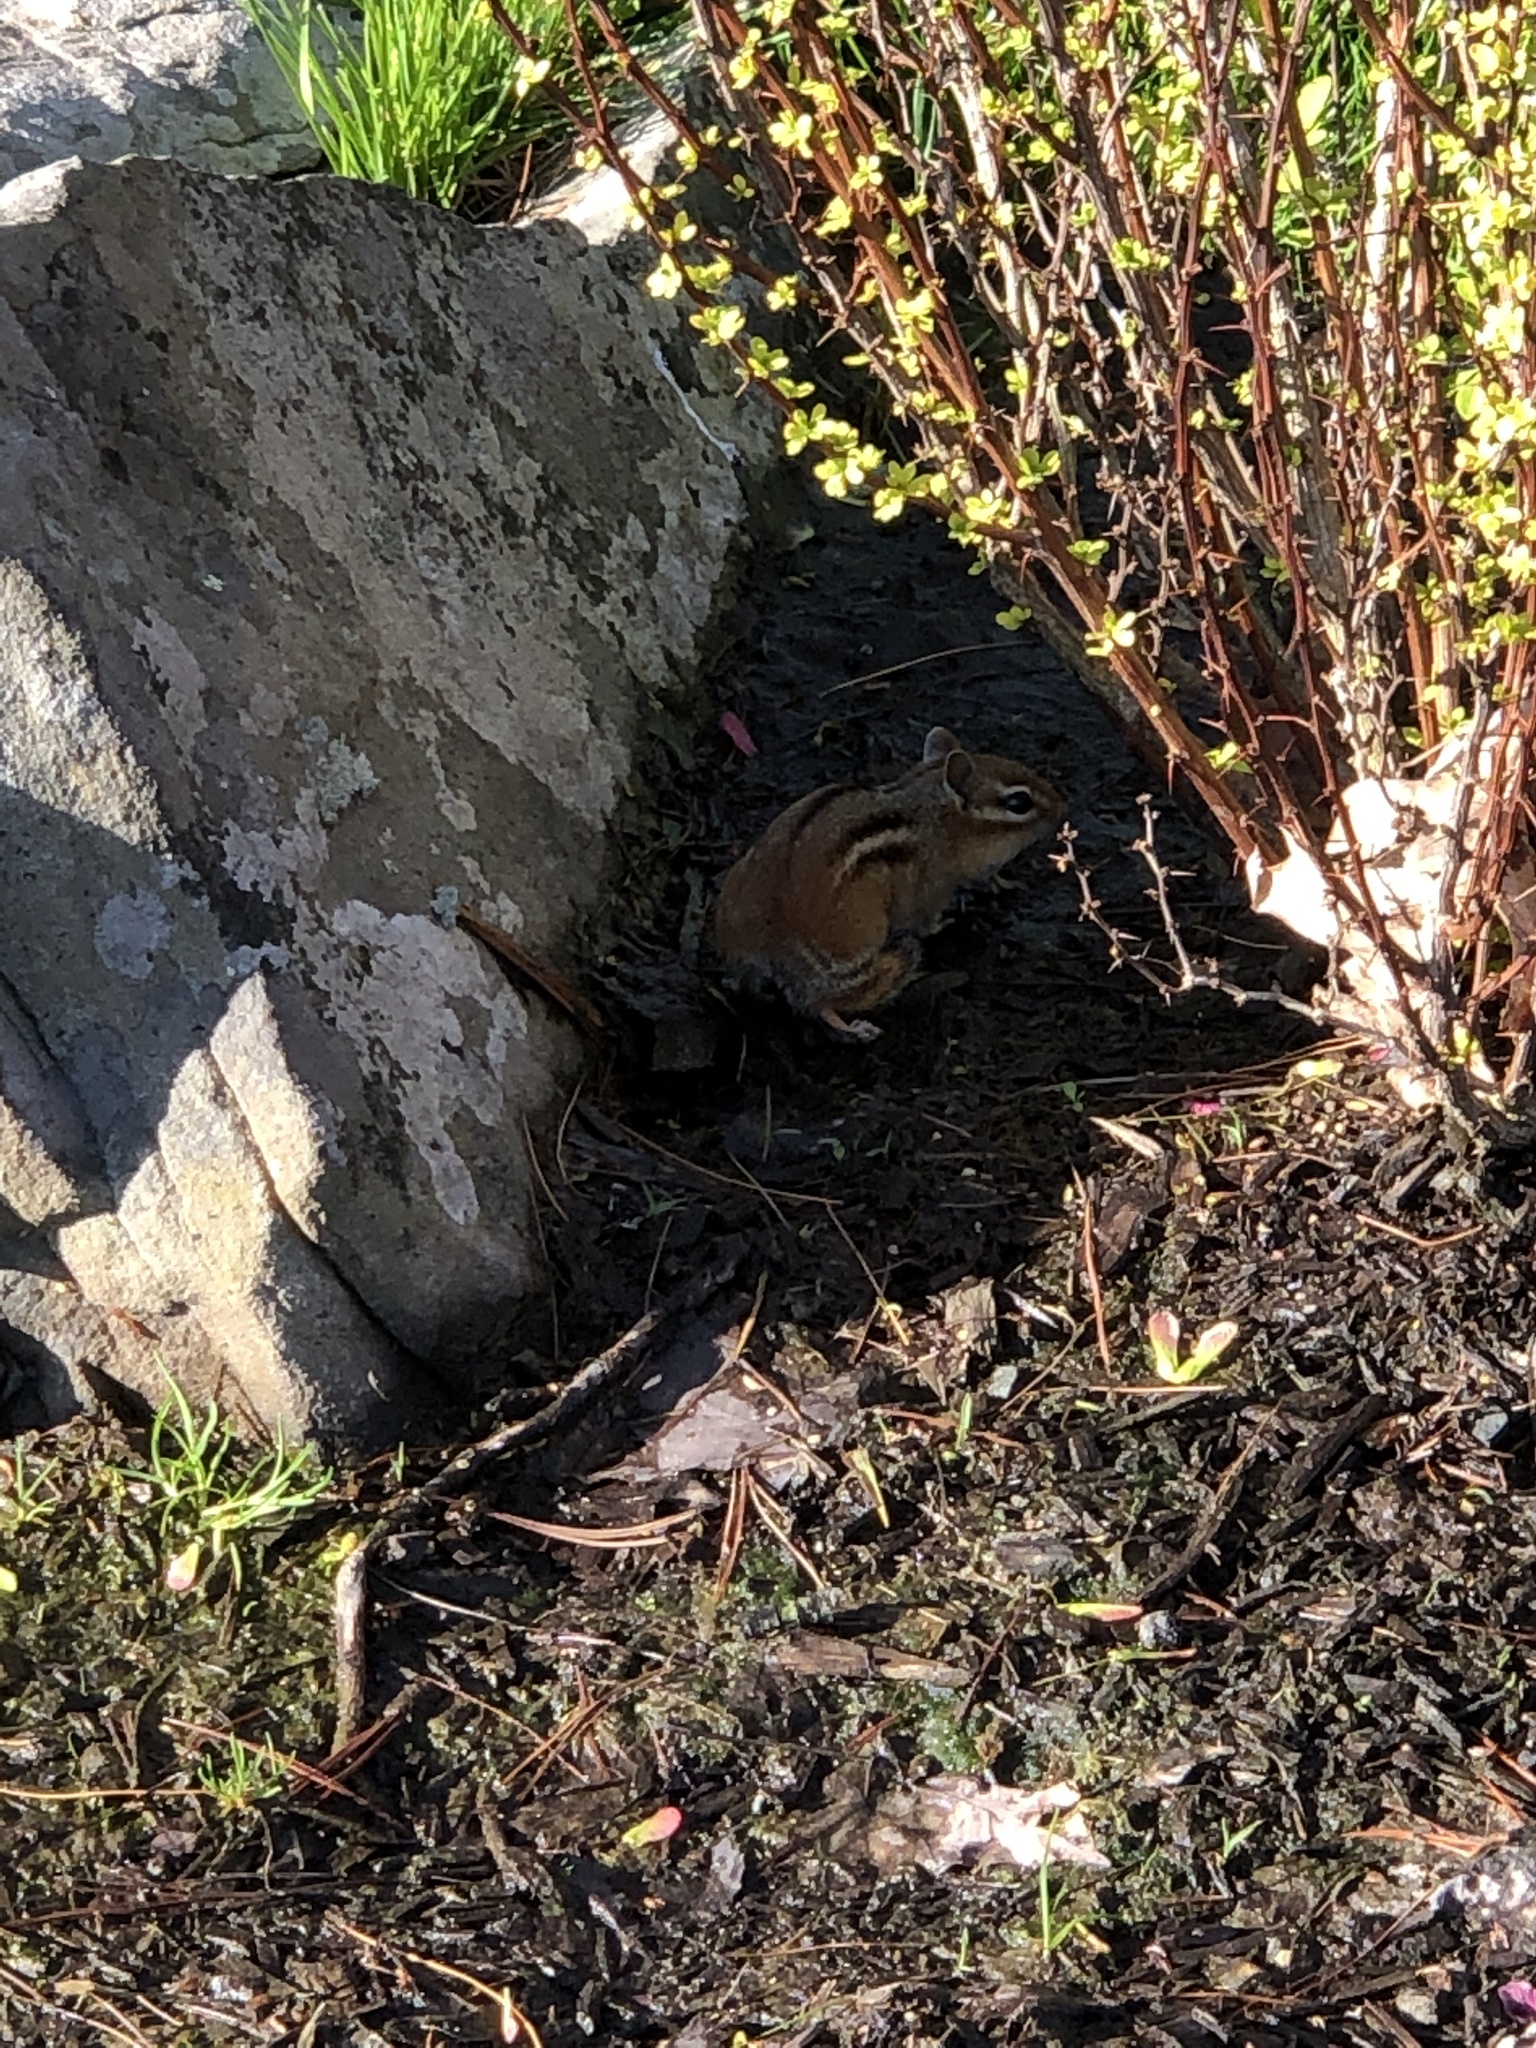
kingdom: Animalia
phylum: Chordata
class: Mammalia
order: Rodentia
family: Sciuridae
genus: Tamias
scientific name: Tamias striatus
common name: Eastern chipmunk
